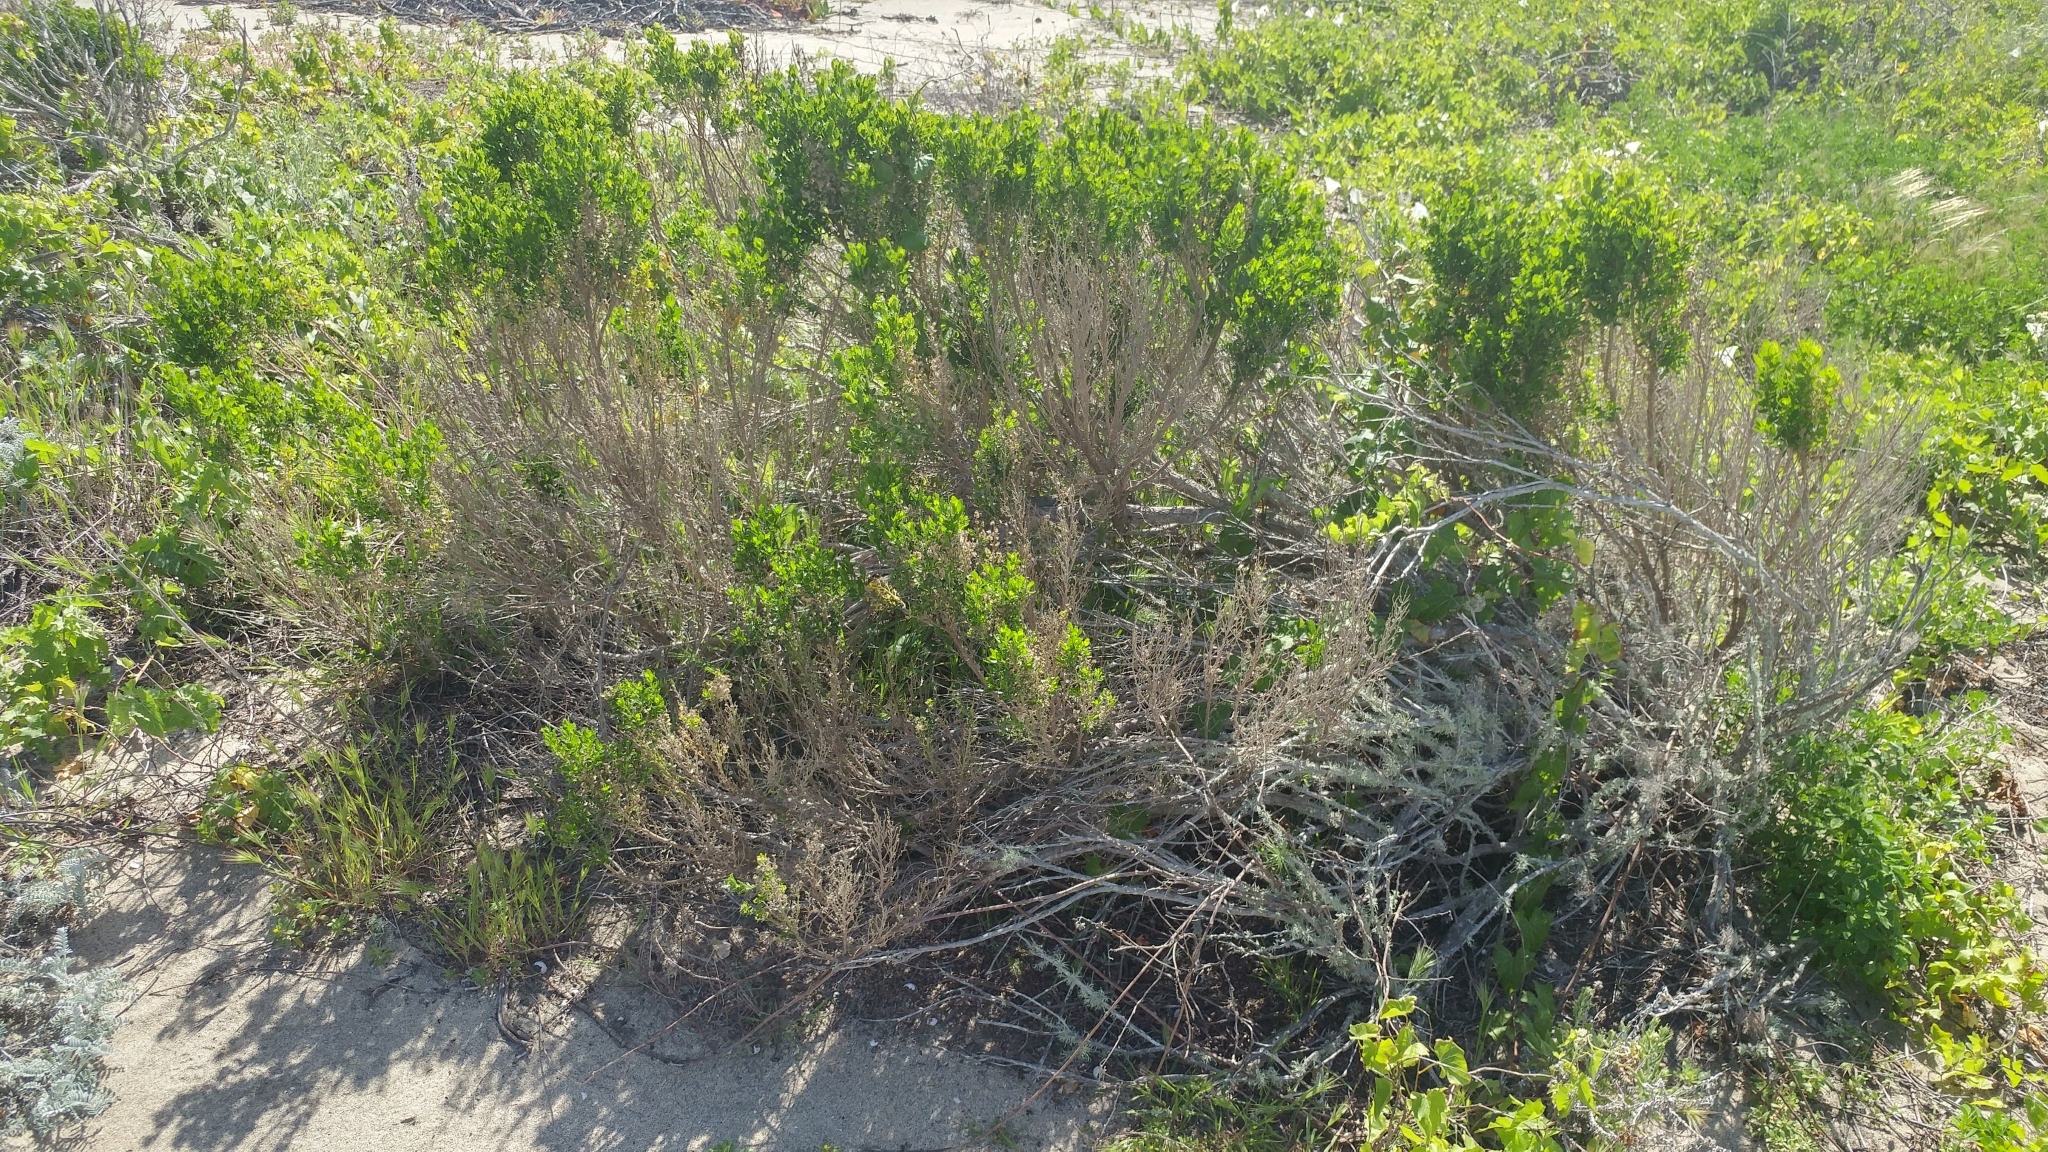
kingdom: Plantae
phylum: Tracheophyta
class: Magnoliopsida
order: Asterales
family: Asteraceae
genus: Baccharis
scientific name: Baccharis pilularis
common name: Coyotebrush
